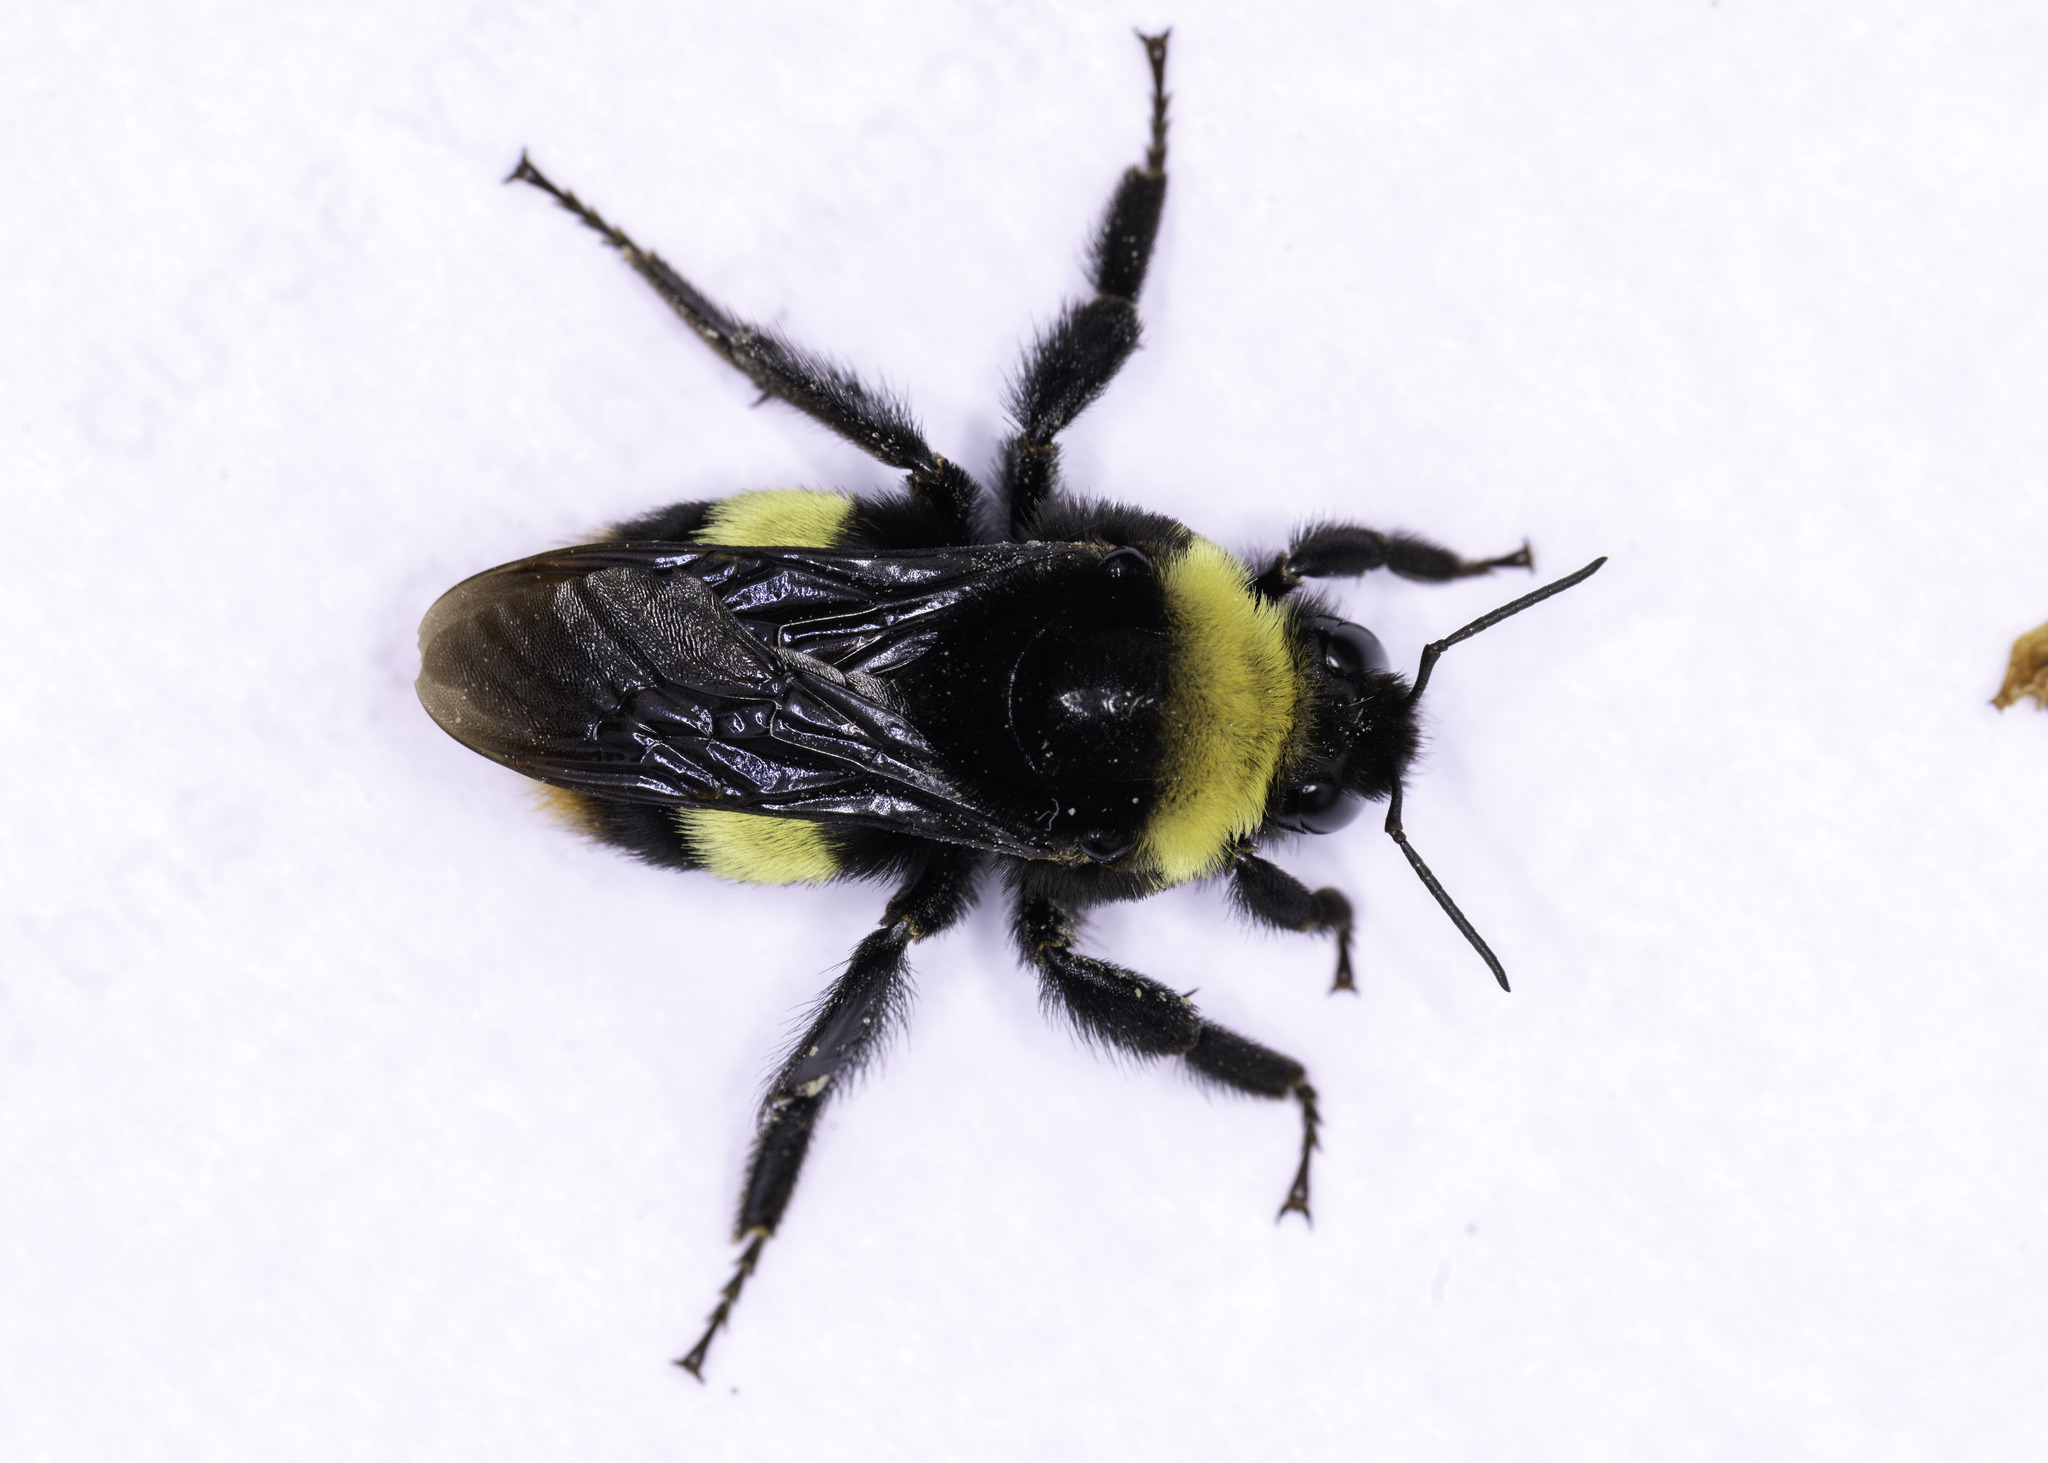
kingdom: Animalia
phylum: Arthropoda
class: Insecta
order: Hymenoptera
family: Apidae
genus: Bombus
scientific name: Bombus crotchii
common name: Crotch bumble bee
